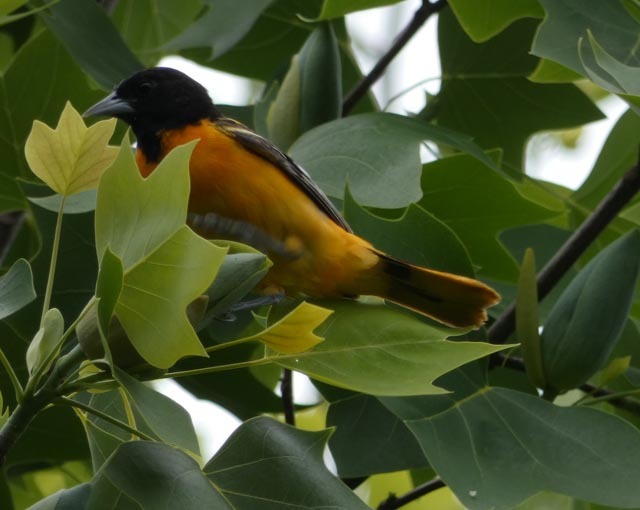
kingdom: Animalia
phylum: Chordata
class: Aves
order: Passeriformes
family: Icteridae
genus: Icterus
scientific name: Icterus galbula
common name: Baltimore oriole
